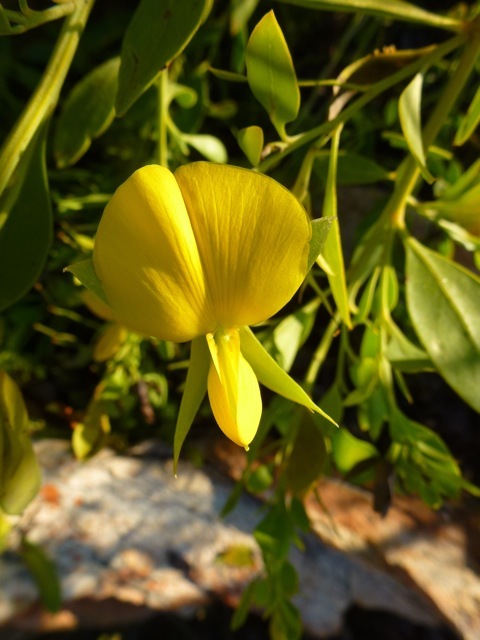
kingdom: Plantae
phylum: Tracheophyta
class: Magnoliopsida
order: Fabales
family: Fabaceae
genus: Rafnia
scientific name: Rafnia vlokii
